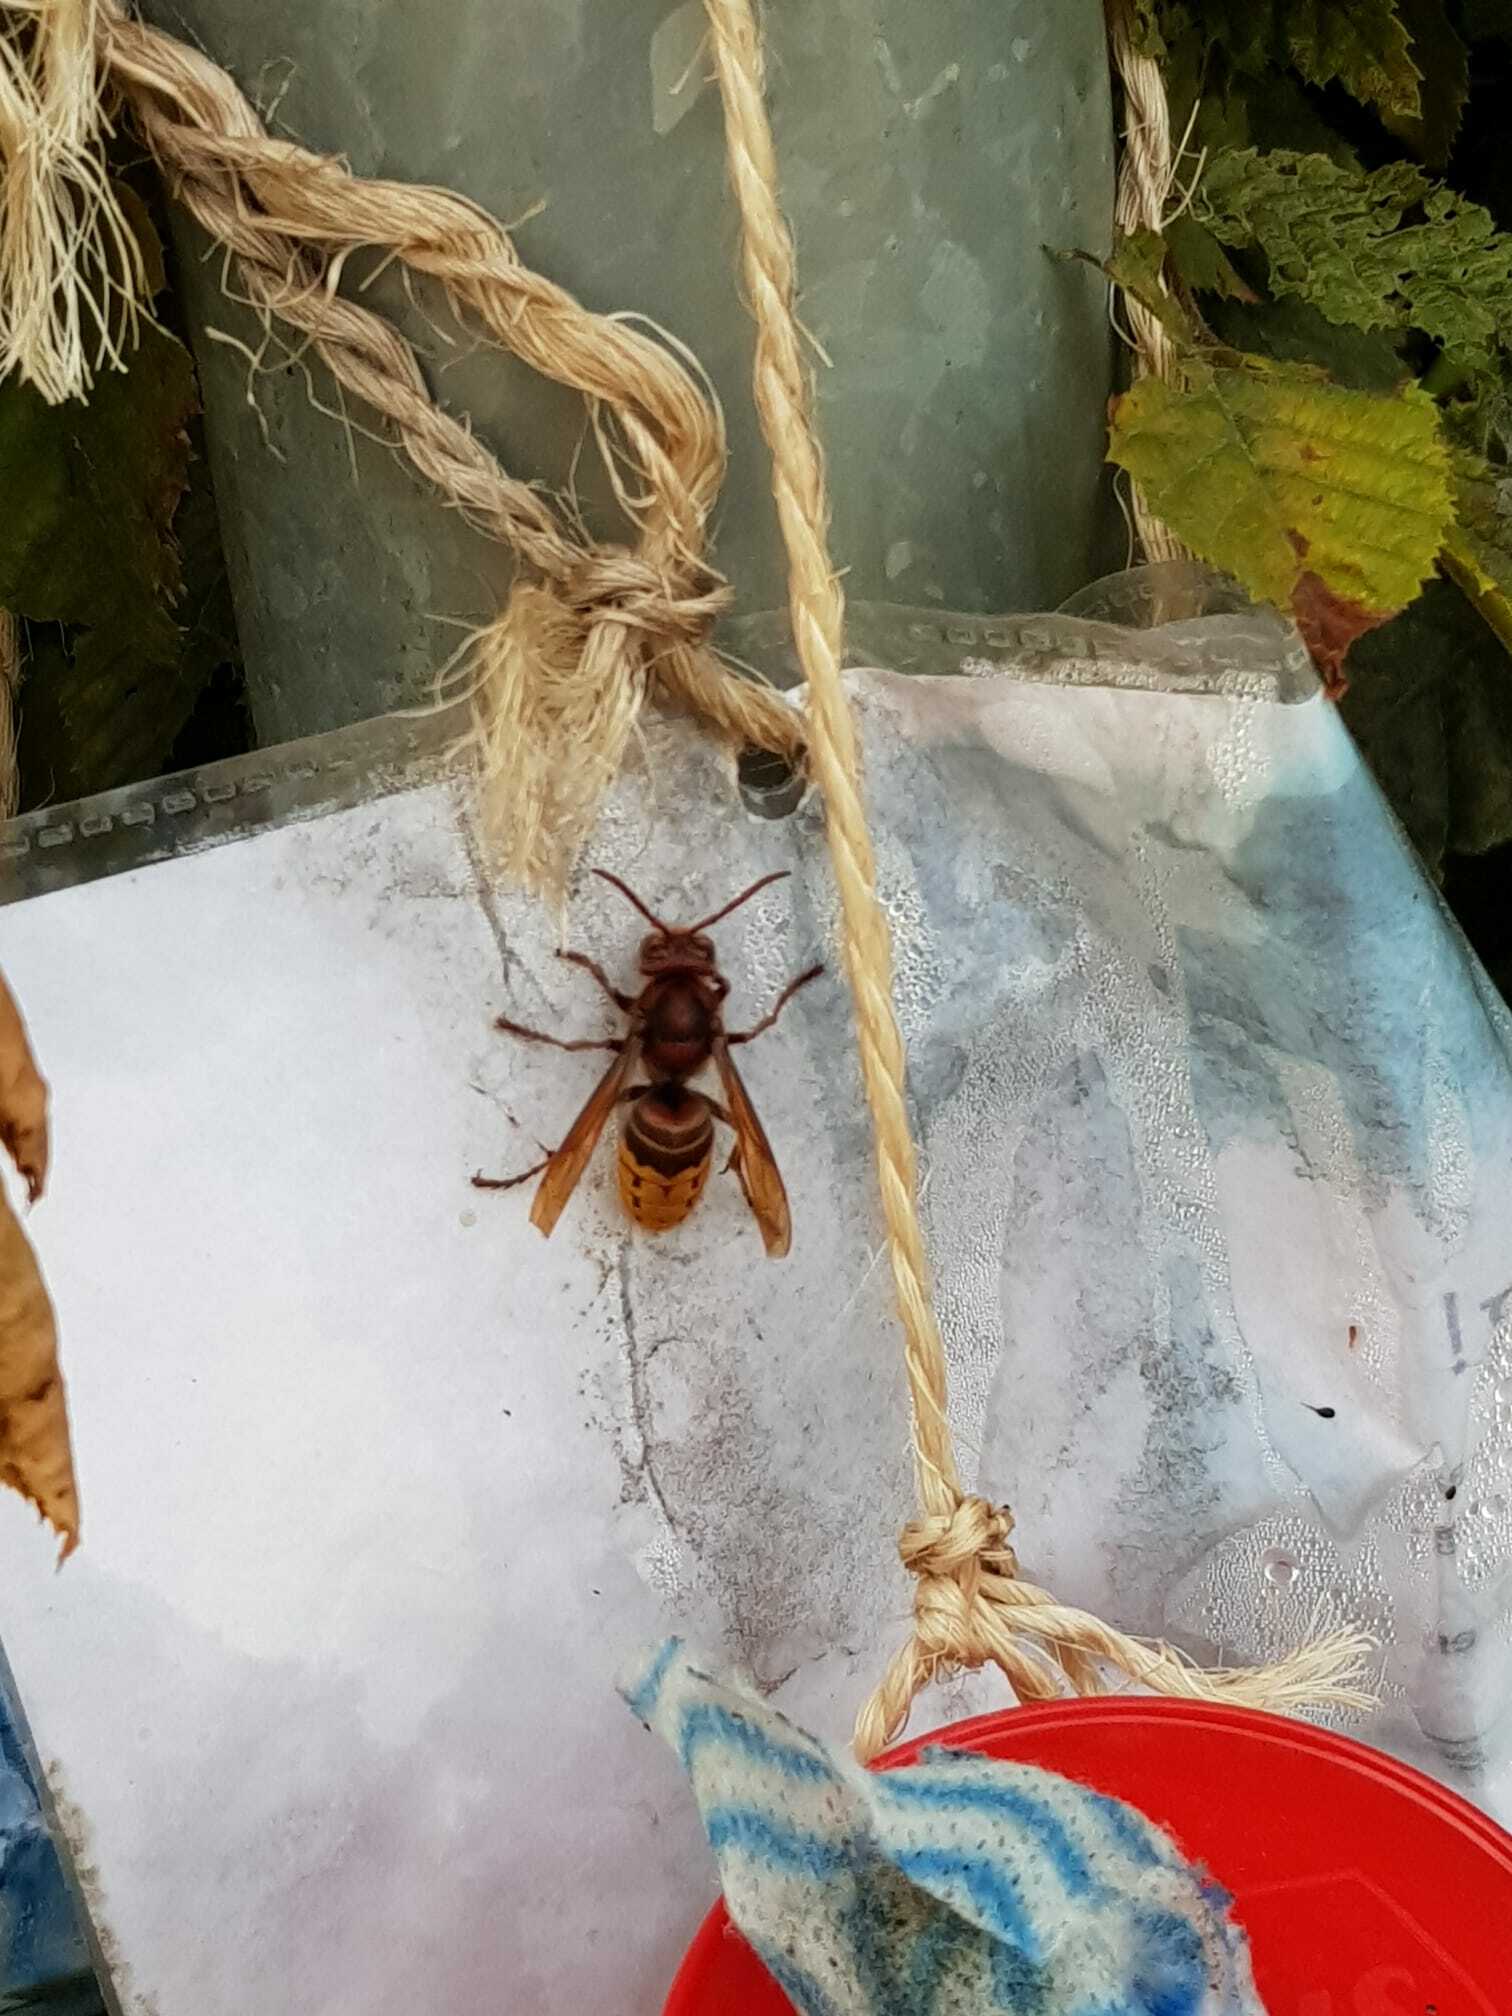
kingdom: Animalia
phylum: Arthropoda
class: Insecta
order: Hymenoptera
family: Vespidae
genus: Vespa
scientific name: Vespa crabro
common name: Hornet
